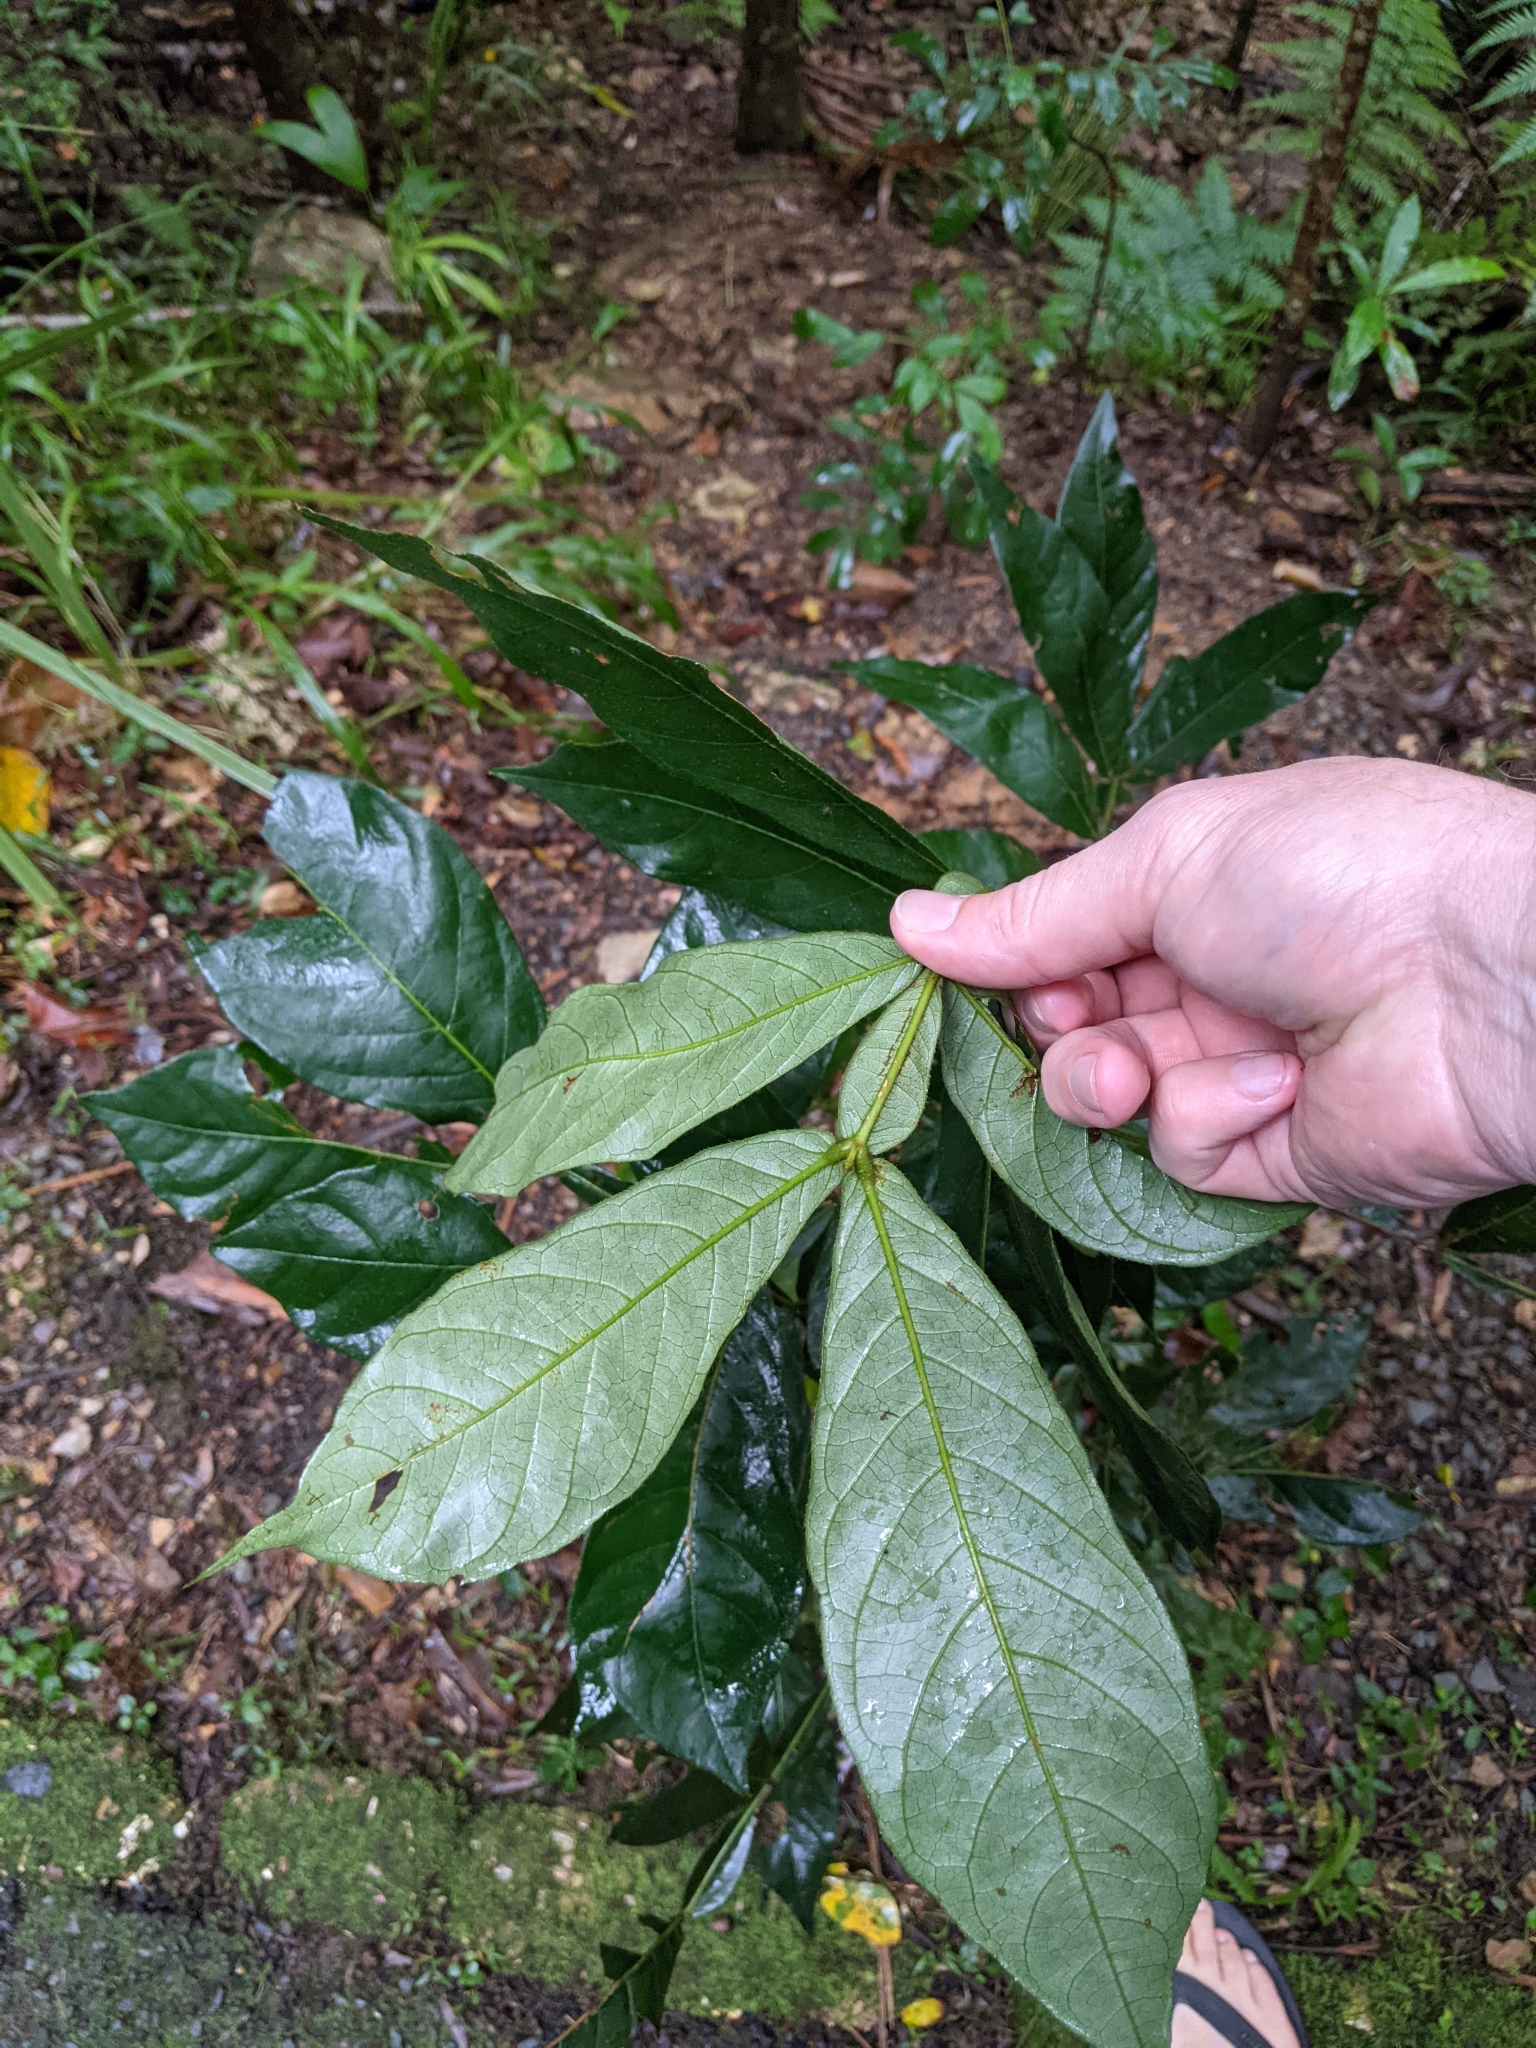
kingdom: Plantae
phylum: Tracheophyta
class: Magnoliopsida
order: Fabales
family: Fabaceae
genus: Inga
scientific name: Inga edulis
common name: Ice cream bean
